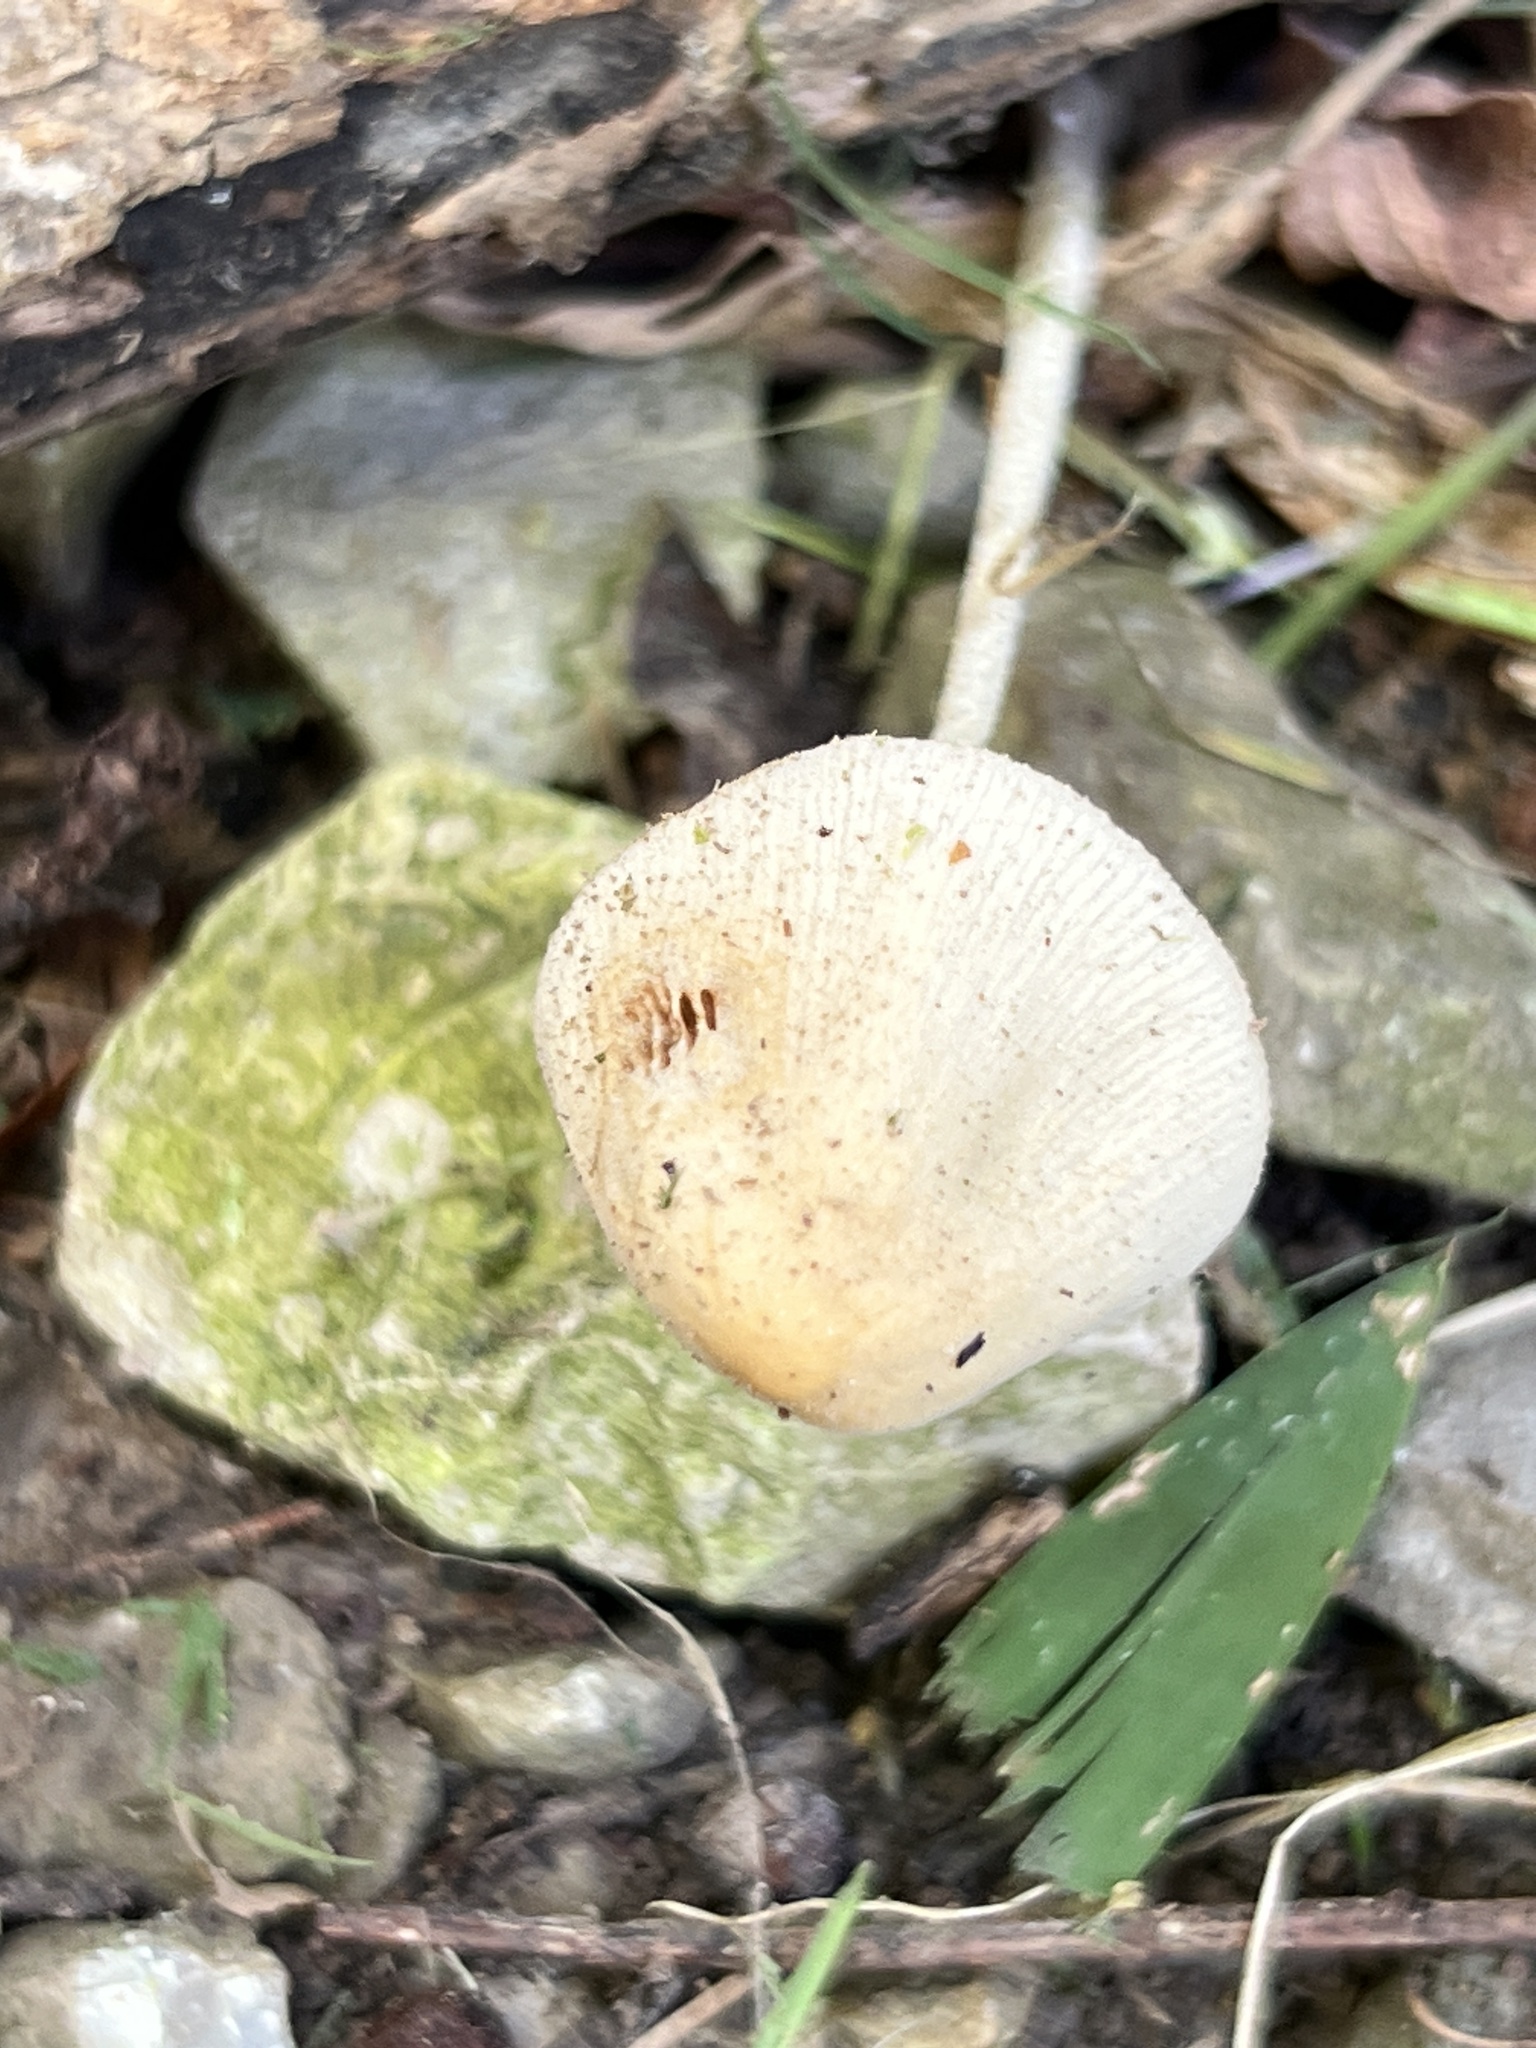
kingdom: Fungi
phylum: Basidiomycota
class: Agaricomycetes
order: Agaricales
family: Bolbitiaceae
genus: Conocybe
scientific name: Conocybe apala
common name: Milky conecap
